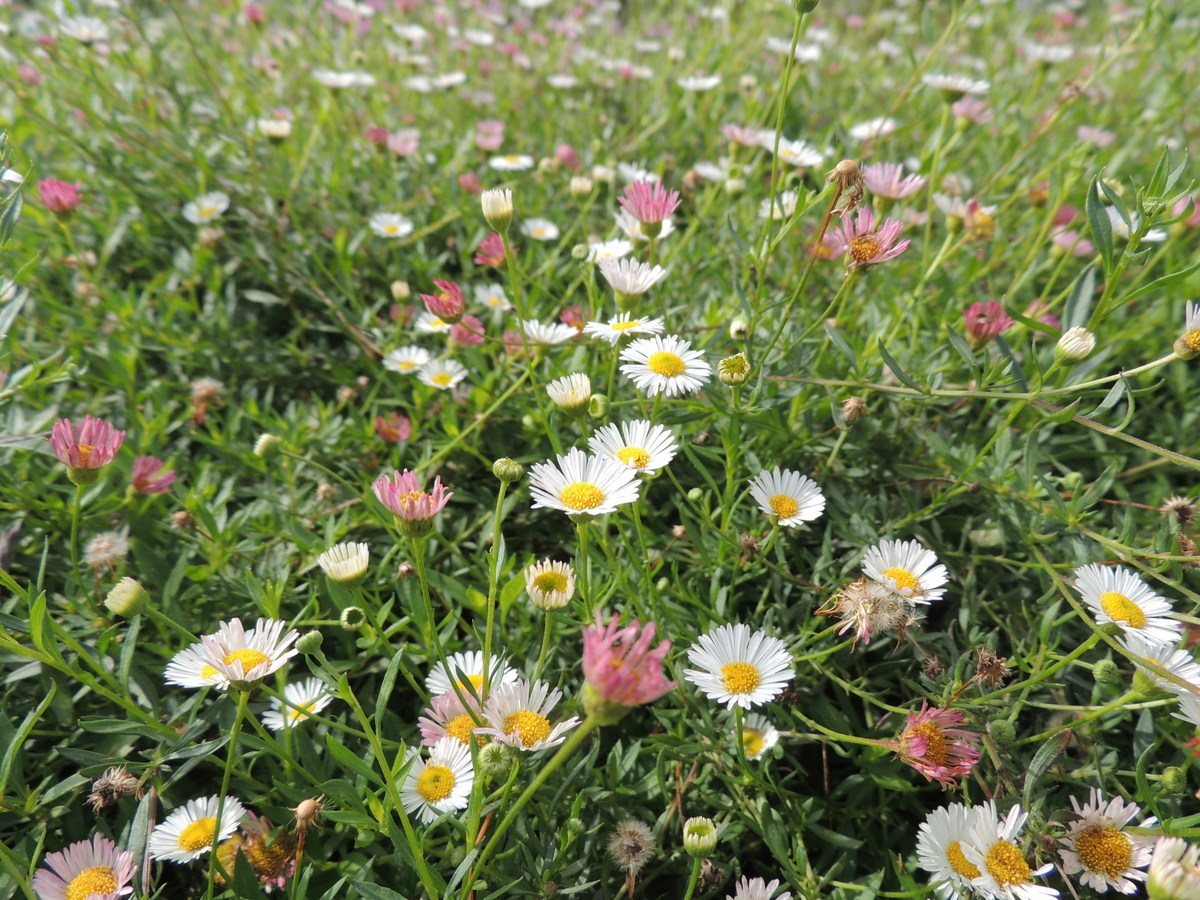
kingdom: Plantae
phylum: Tracheophyta
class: Magnoliopsida
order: Asterales
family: Asteraceae
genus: Erigeron
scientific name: Erigeron karvinskianus
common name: Mexican fleabane
